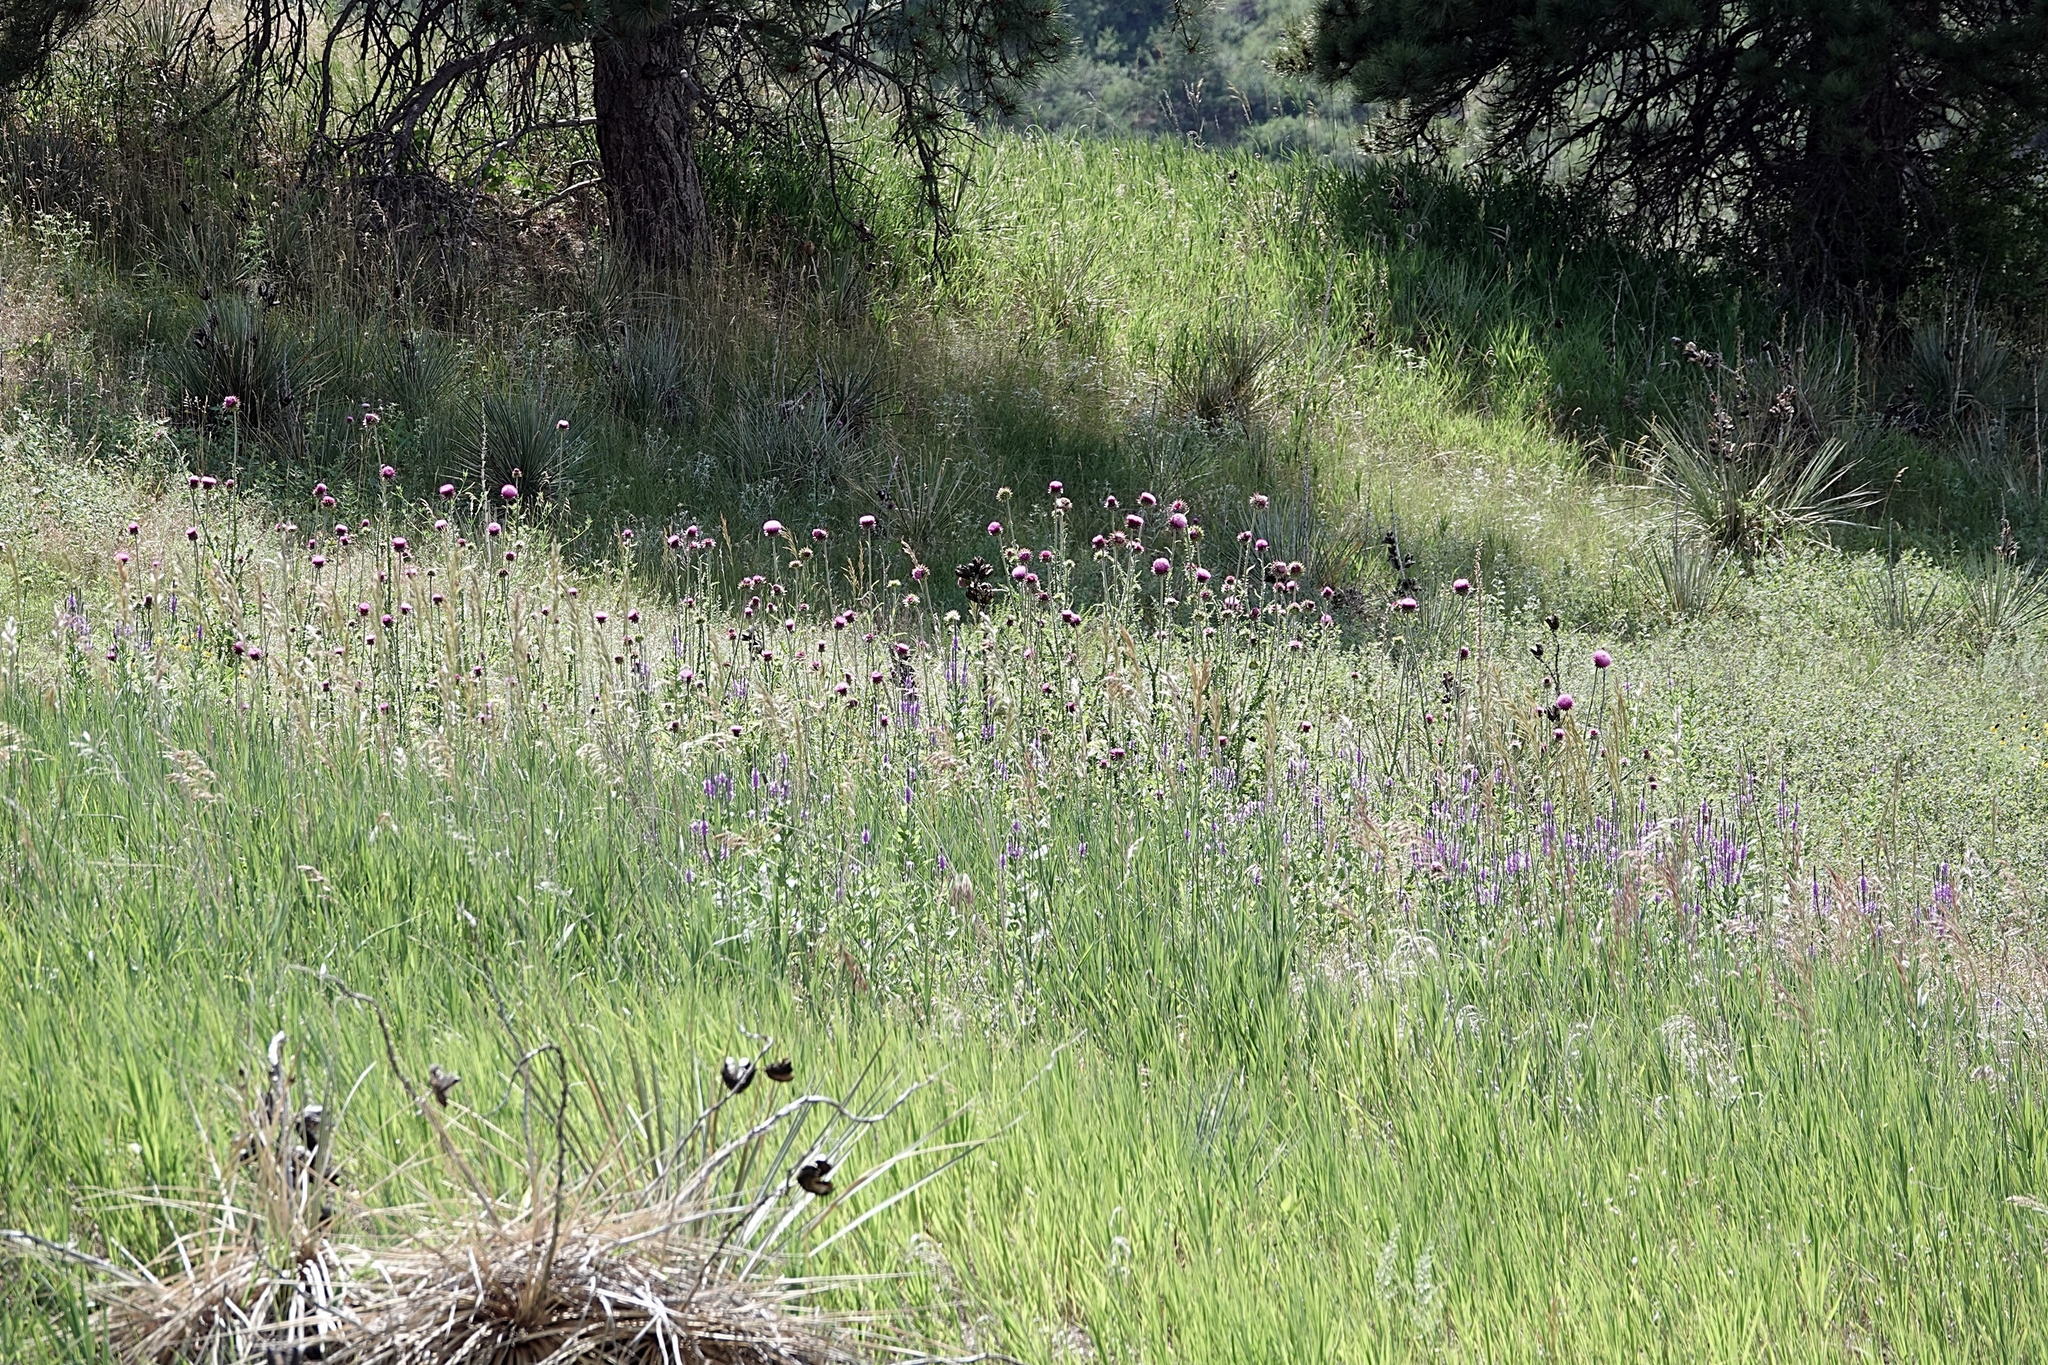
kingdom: Plantae
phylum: Tracheophyta
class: Magnoliopsida
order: Asterales
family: Asteraceae
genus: Carduus
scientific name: Carduus nutans
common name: Musk thistle
